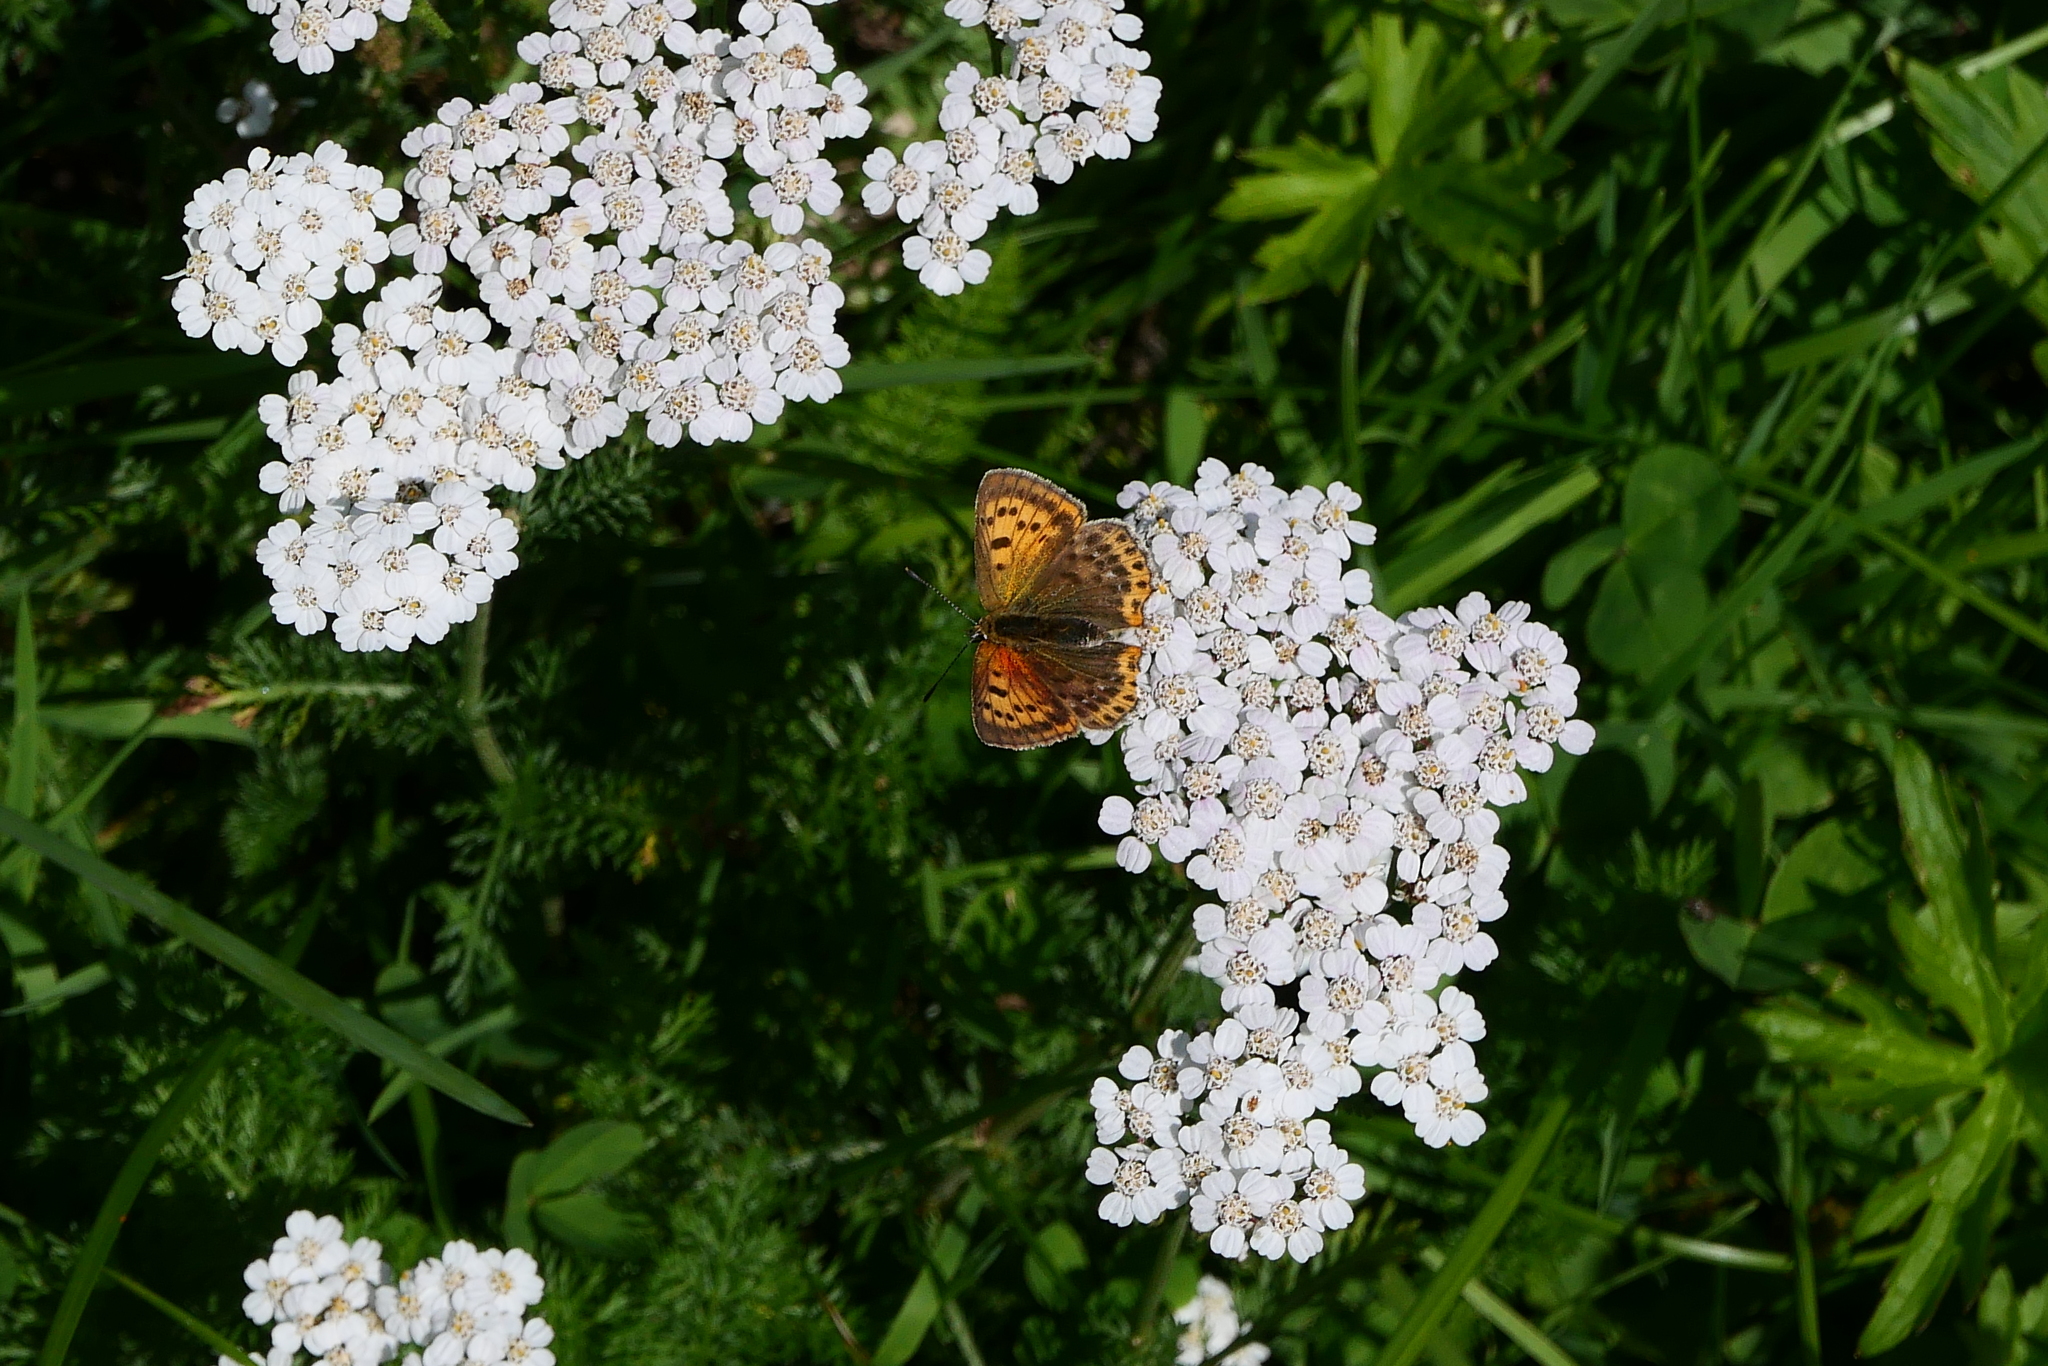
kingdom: Animalia
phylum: Arthropoda
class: Insecta
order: Lepidoptera
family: Lycaenidae
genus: Lycaena
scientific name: Lycaena virgaureae
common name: Scarce copper
